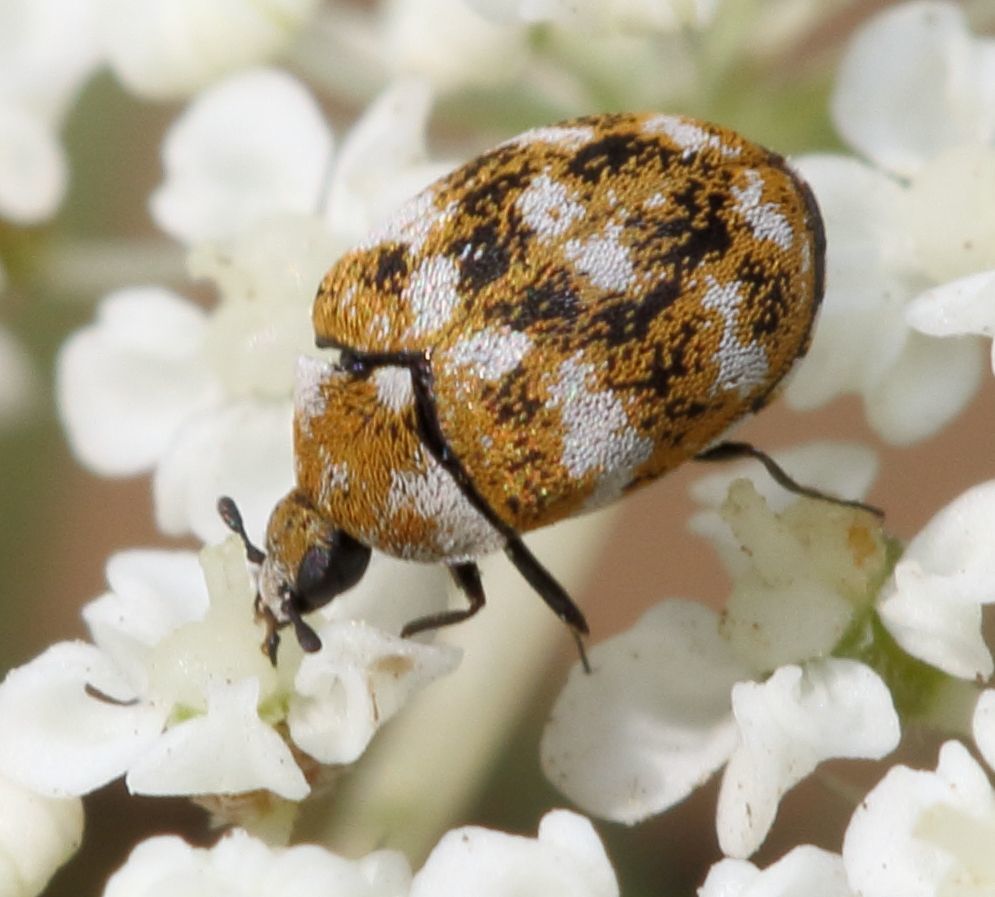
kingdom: Animalia
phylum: Arthropoda
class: Insecta
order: Coleoptera
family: Dermestidae
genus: Anthrenus
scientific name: Anthrenus verbasci
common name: Varied carpet beetle
